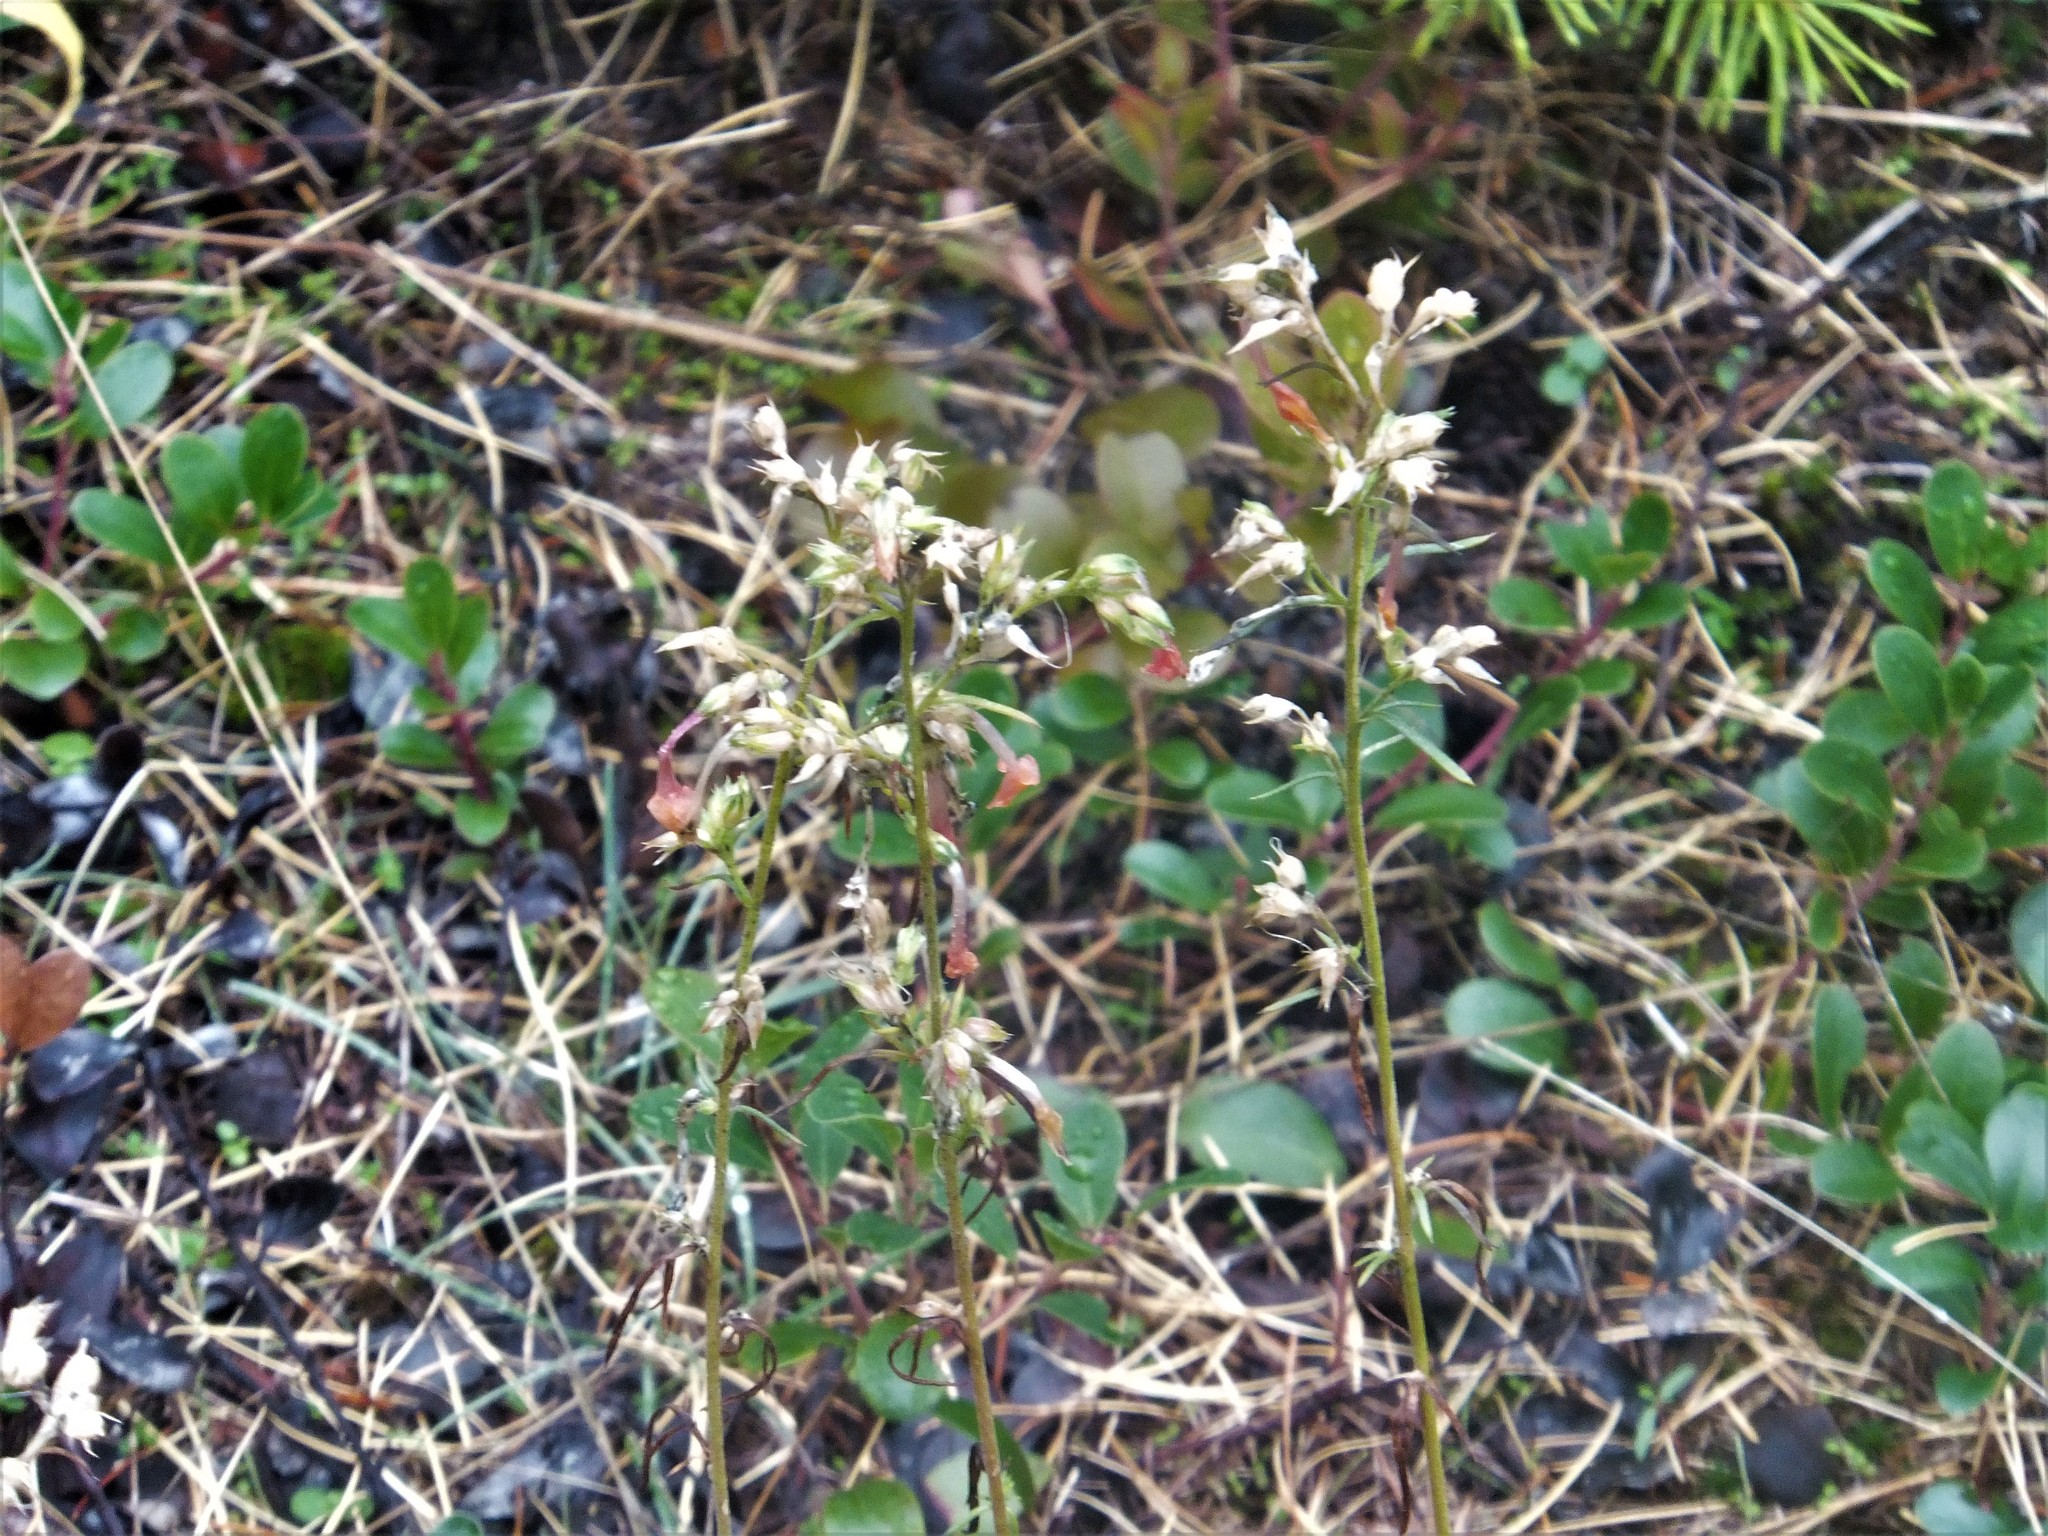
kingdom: Plantae
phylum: Tracheophyta
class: Magnoliopsida
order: Ericales
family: Polemoniaceae
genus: Ipomopsis
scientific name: Ipomopsis aggregata
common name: Scarlet gilia
